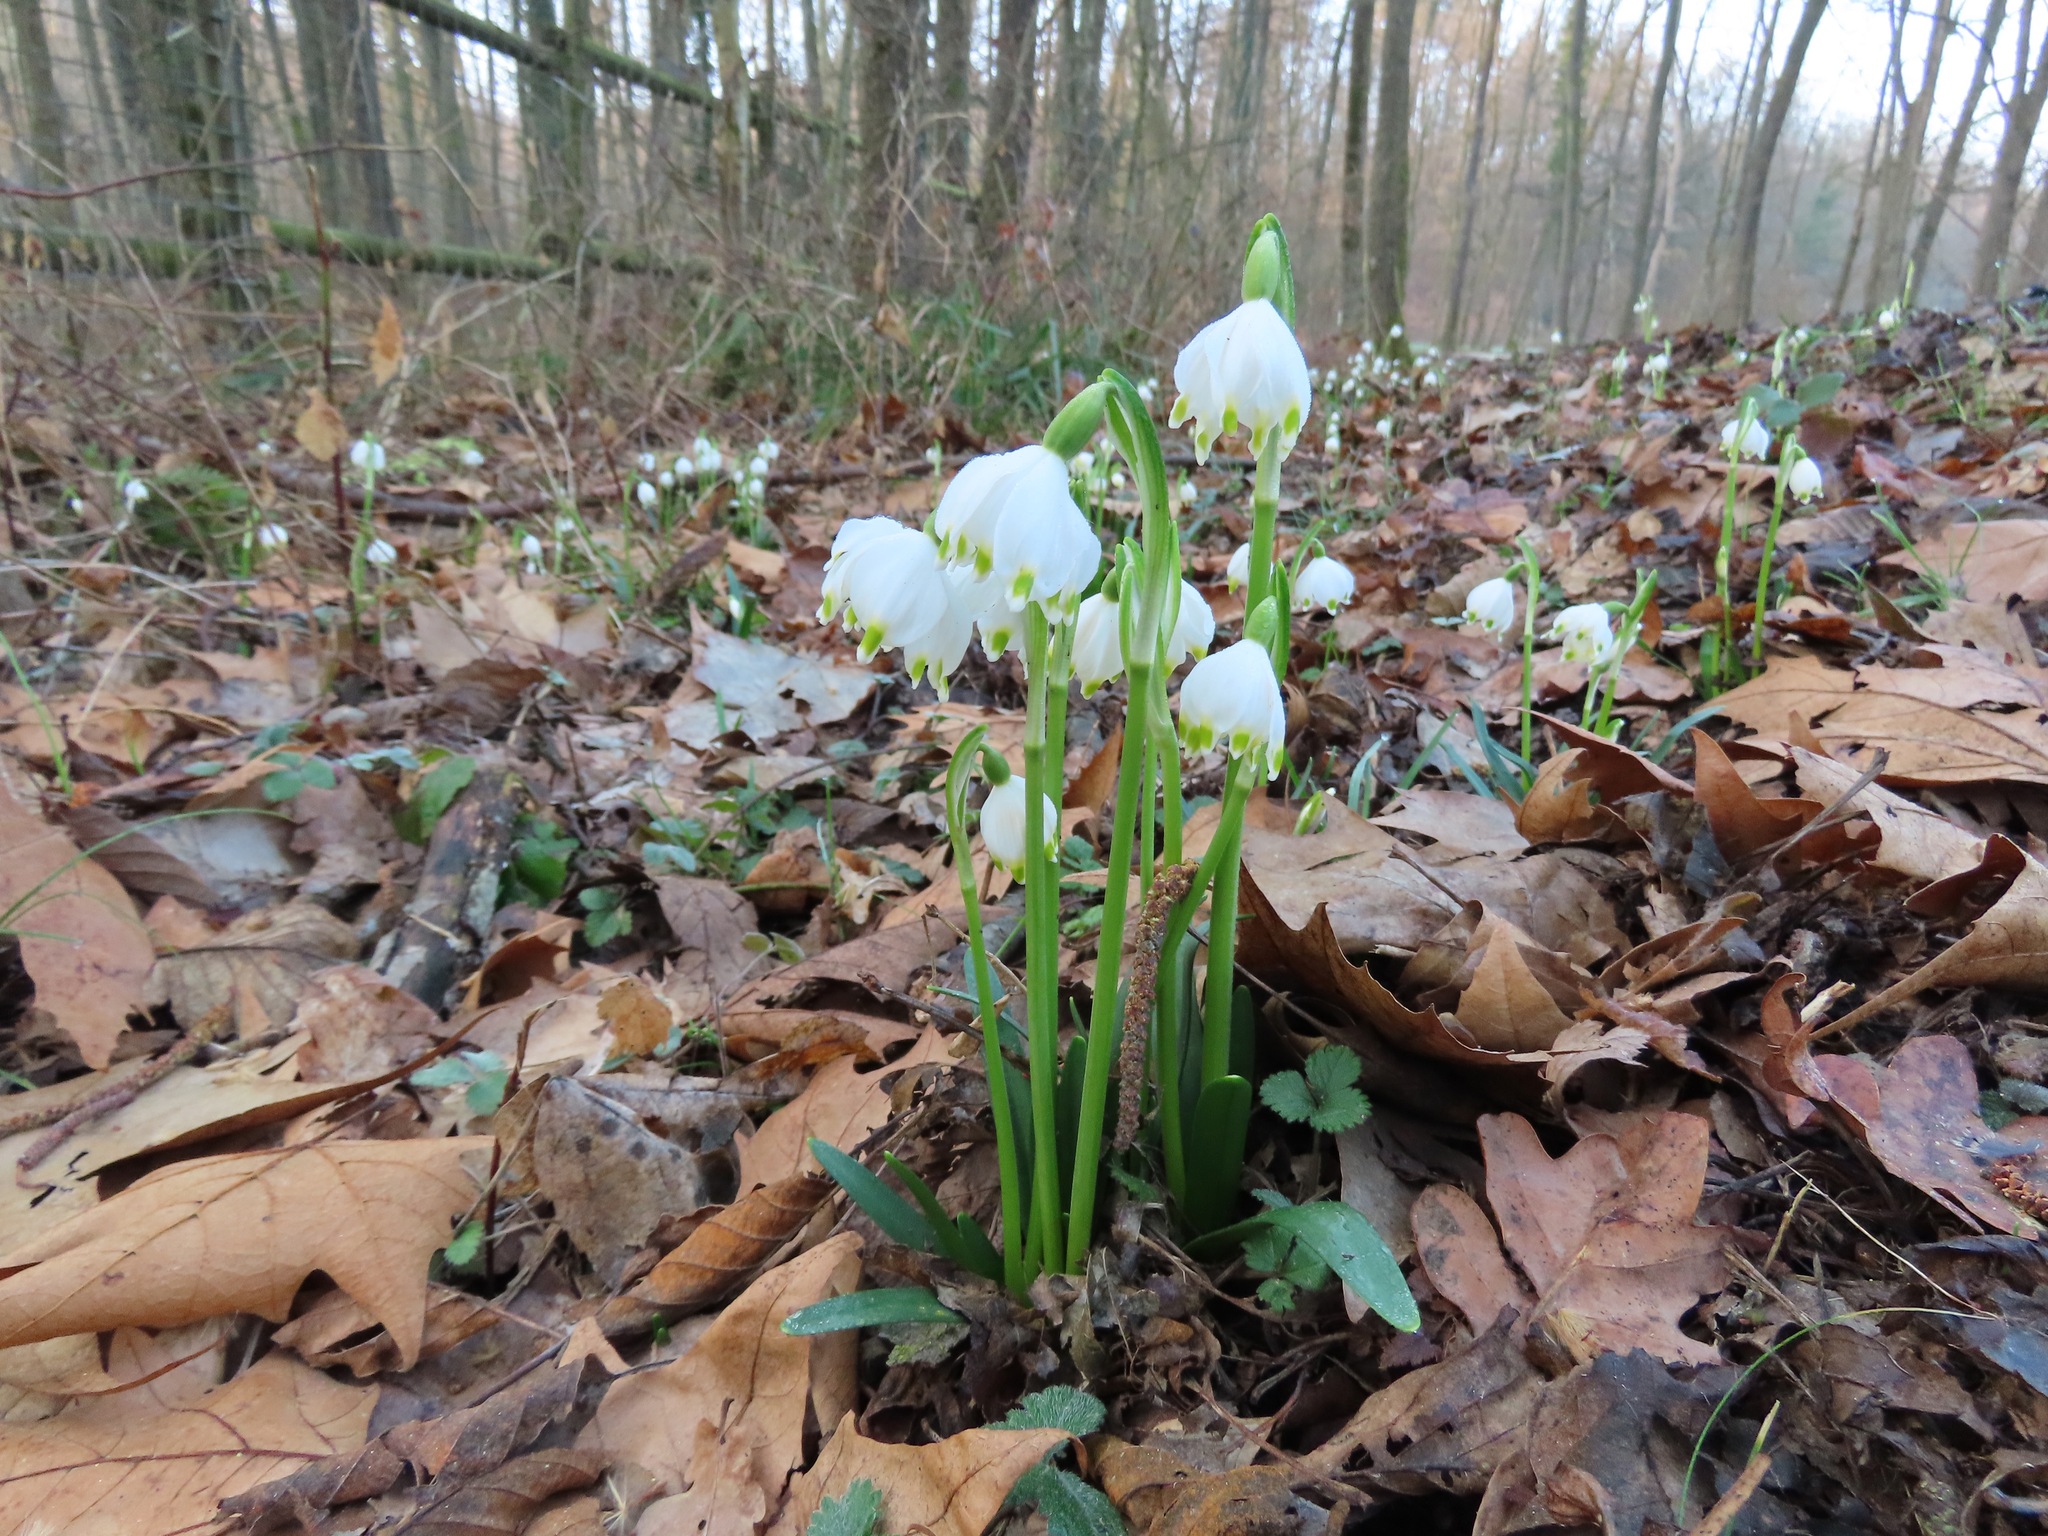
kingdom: Plantae
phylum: Tracheophyta
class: Liliopsida
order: Asparagales
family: Amaryllidaceae
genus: Leucojum
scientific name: Leucojum vernum
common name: Spring snowflake
